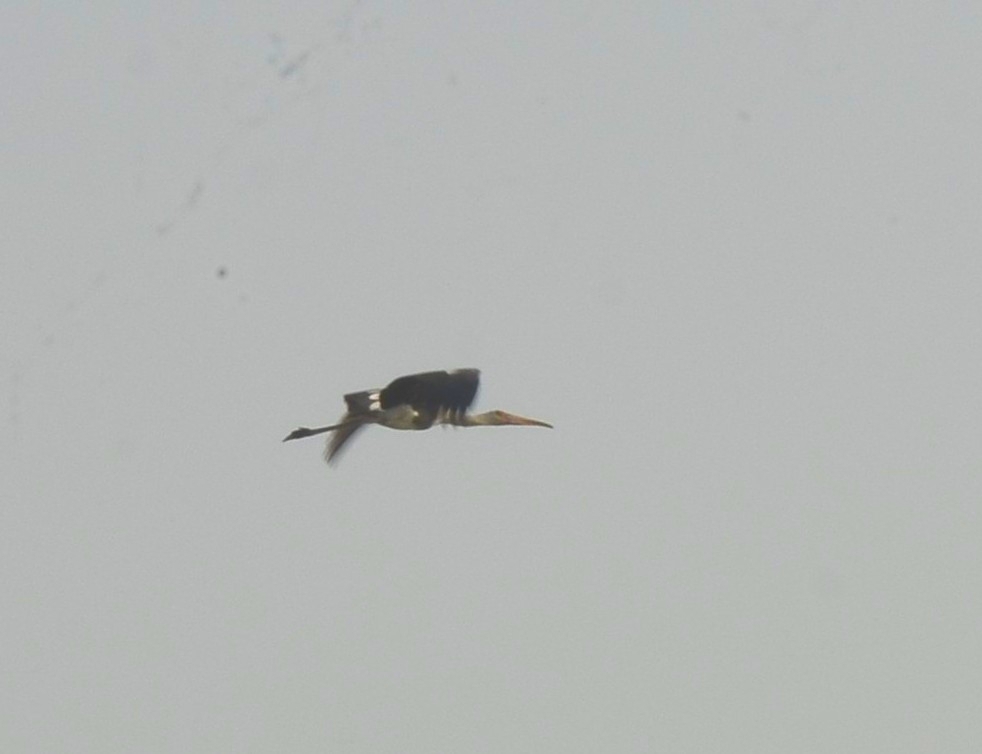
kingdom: Animalia
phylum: Chordata
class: Aves
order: Ciconiiformes
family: Ciconiidae
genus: Mycteria
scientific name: Mycteria leucocephala
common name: Painted stork
